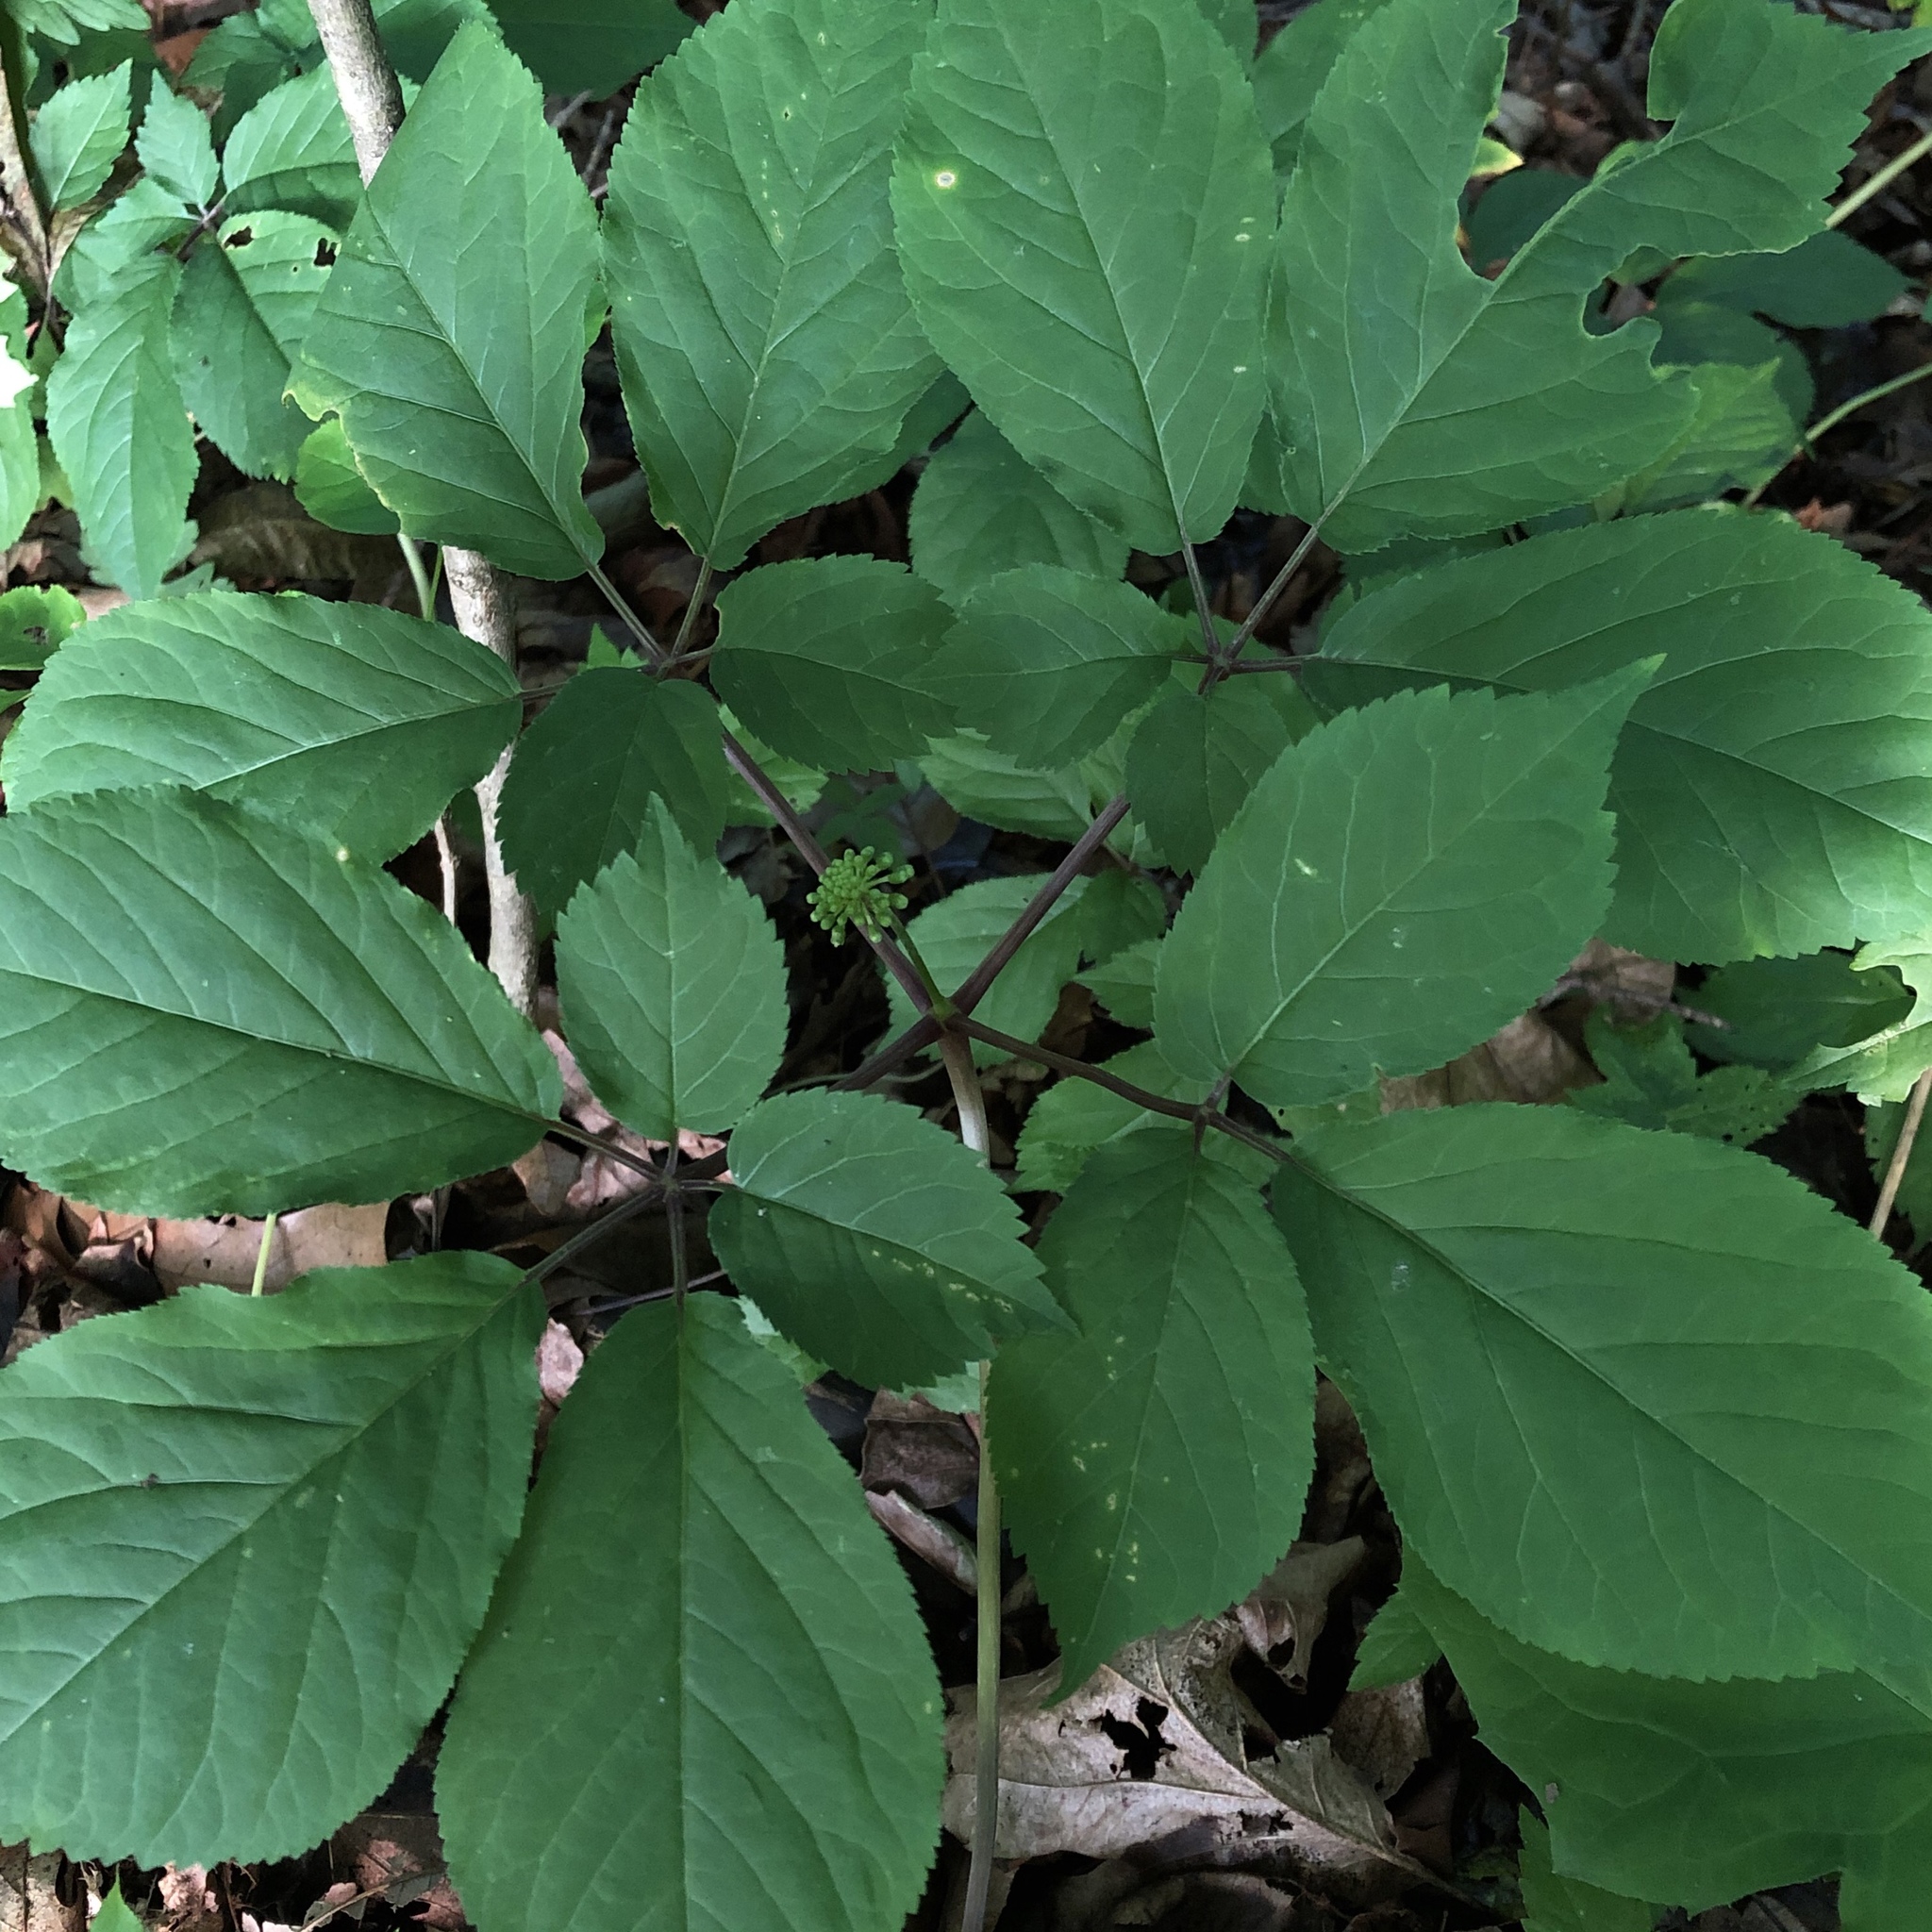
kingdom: Plantae
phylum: Tracheophyta
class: Magnoliopsida
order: Apiales
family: Araliaceae
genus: Panax
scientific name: Panax quinquefolius
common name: American ginseng
